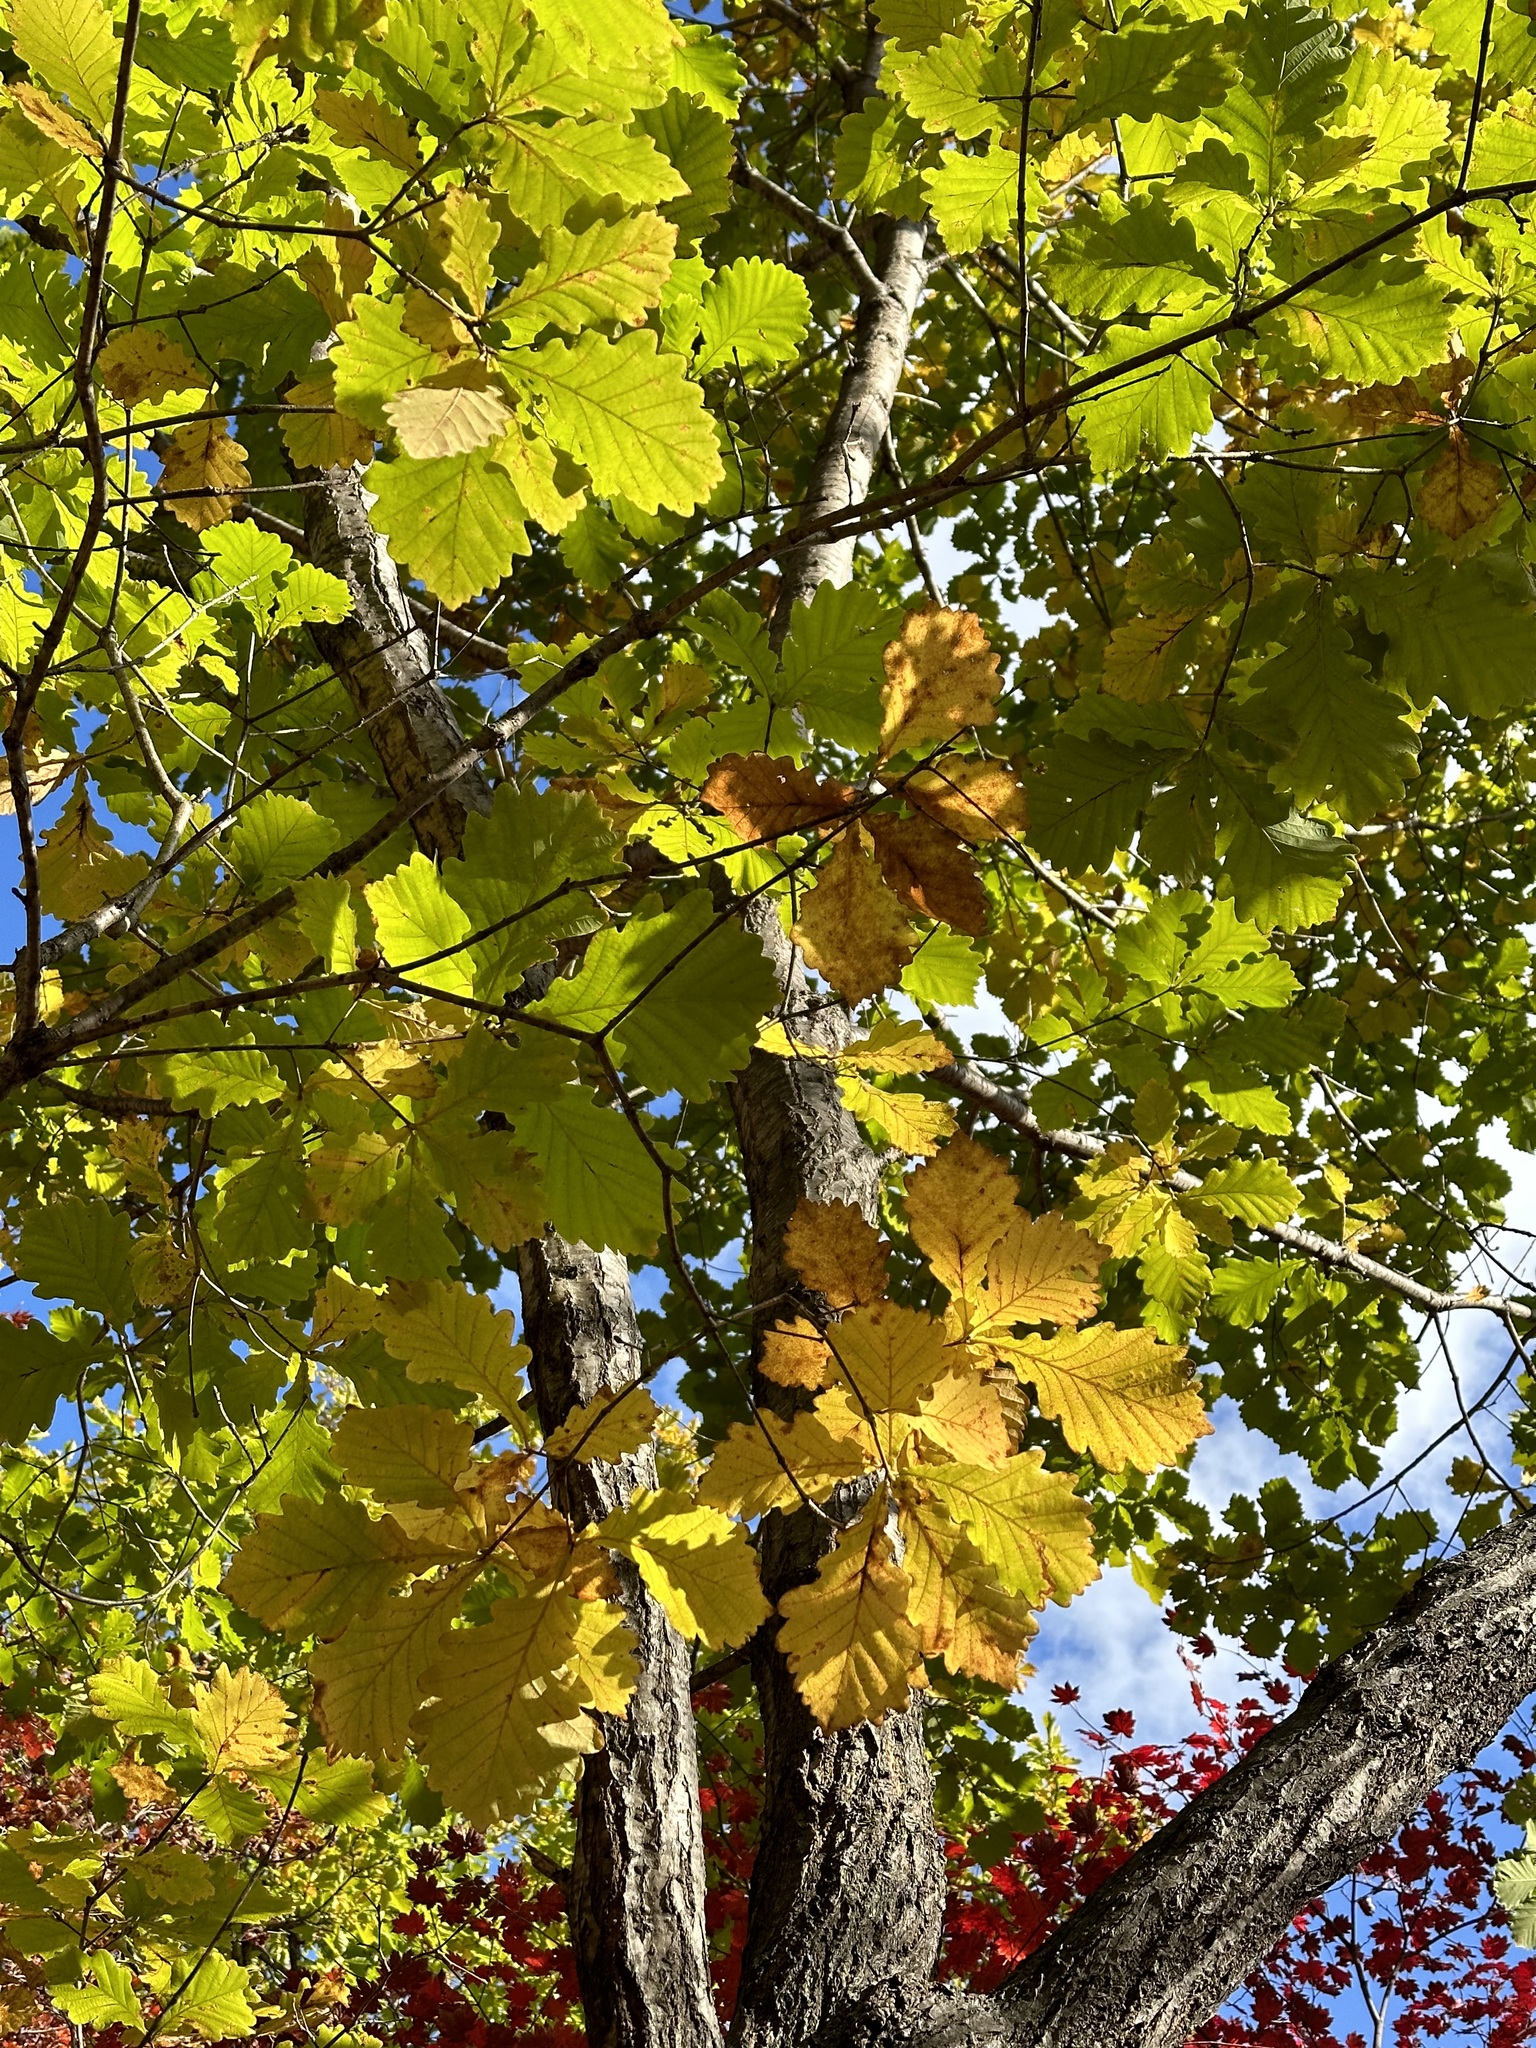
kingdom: Plantae
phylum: Tracheophyta
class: Magnoliopsida
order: Fagales
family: Fagaceae
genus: Quercus
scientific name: Quercus mongolica
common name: Mongolian oak
